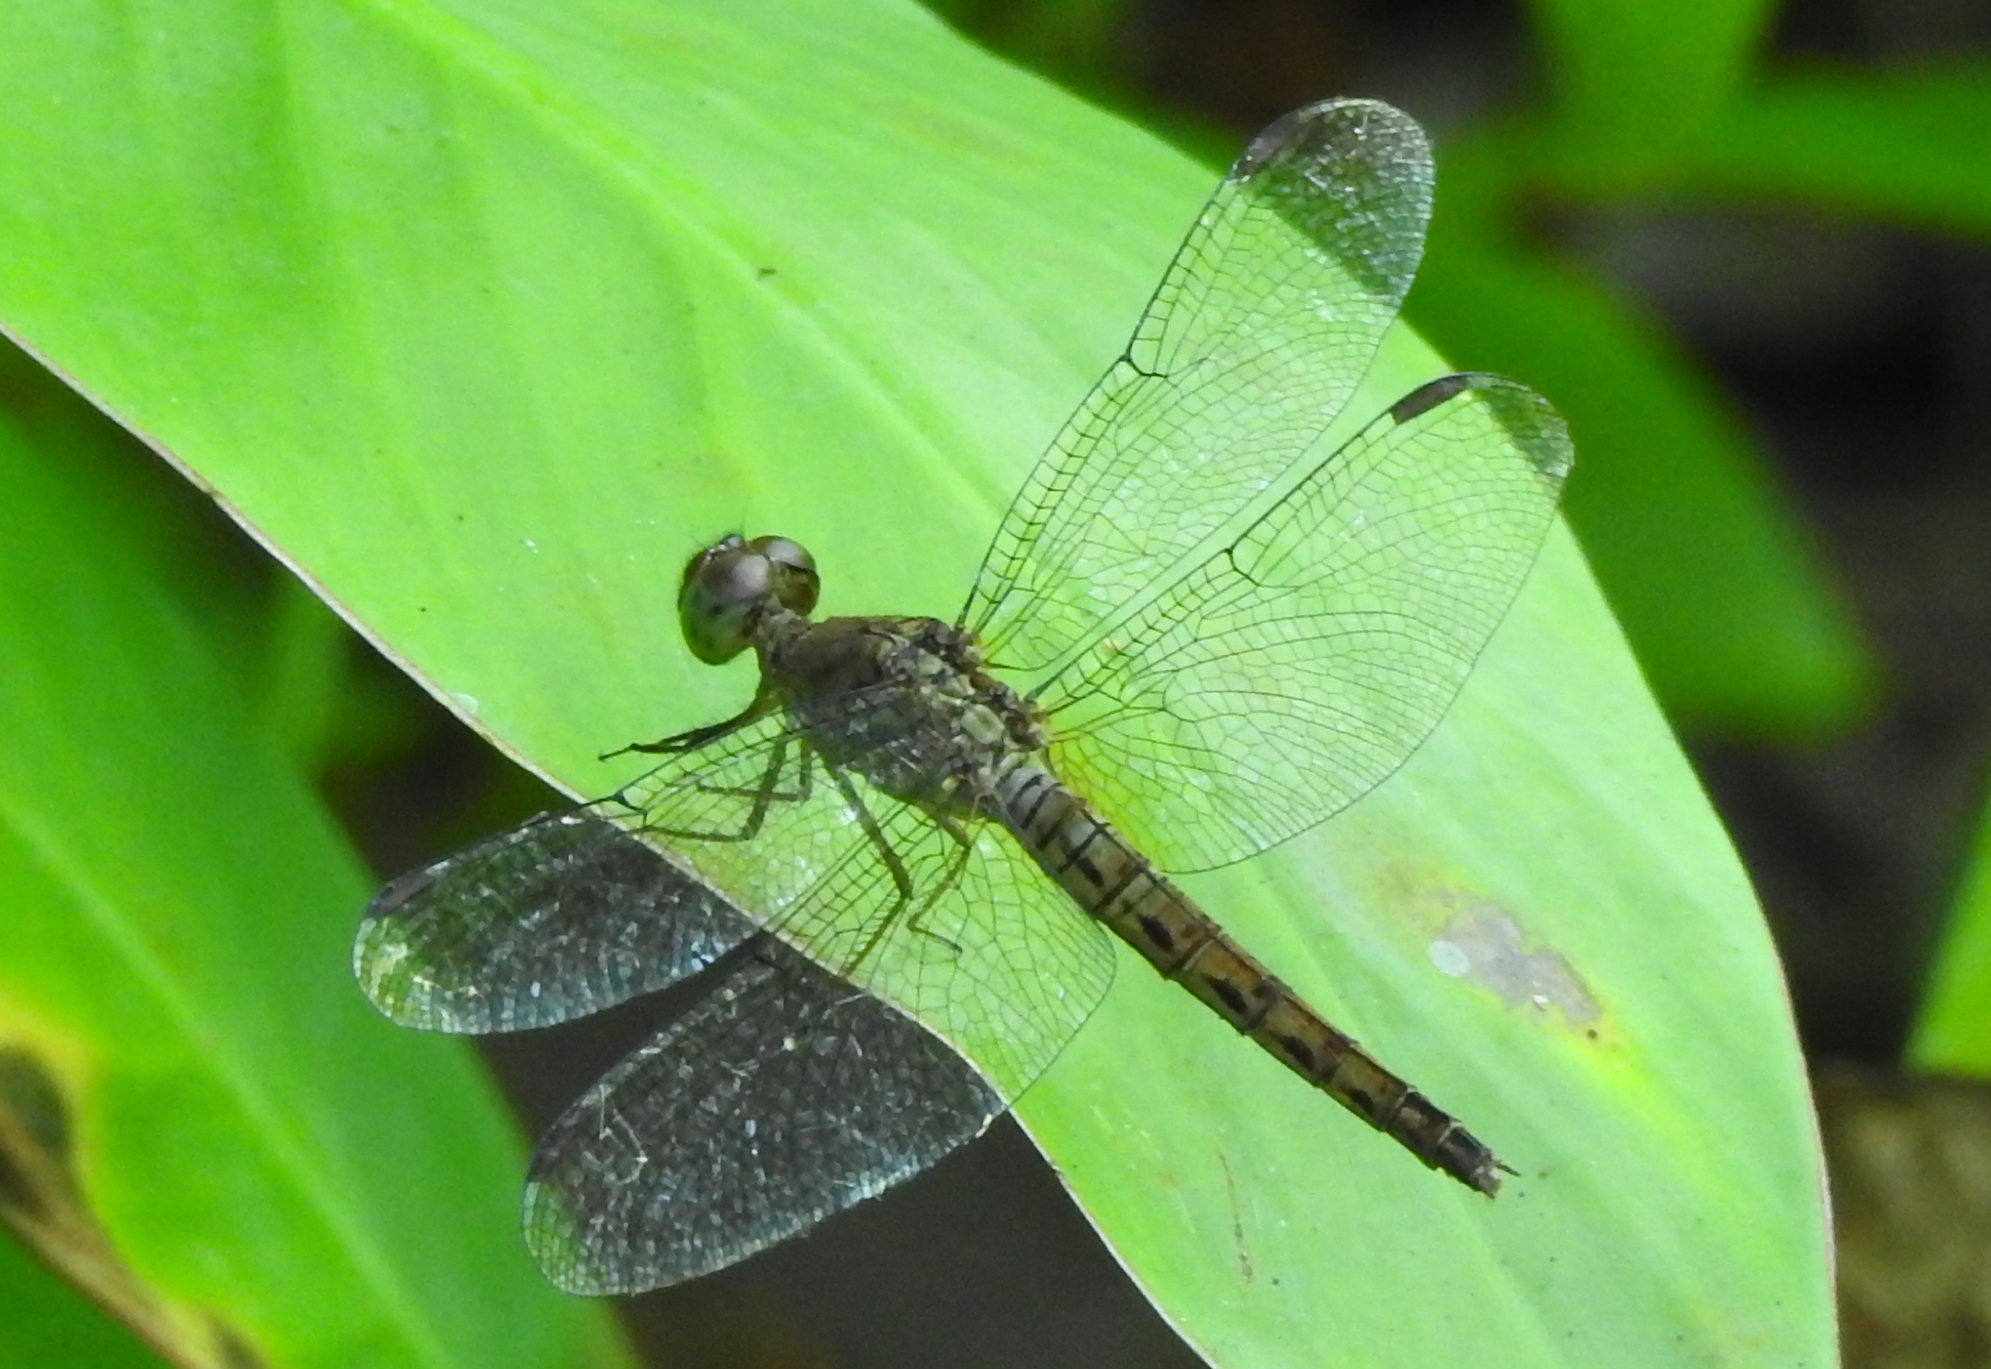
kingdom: Animalia
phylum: Arthropoda
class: Insecta
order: Odonata
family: Libellulidae
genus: Neurothemis
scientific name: Neurothemis fluctuans
